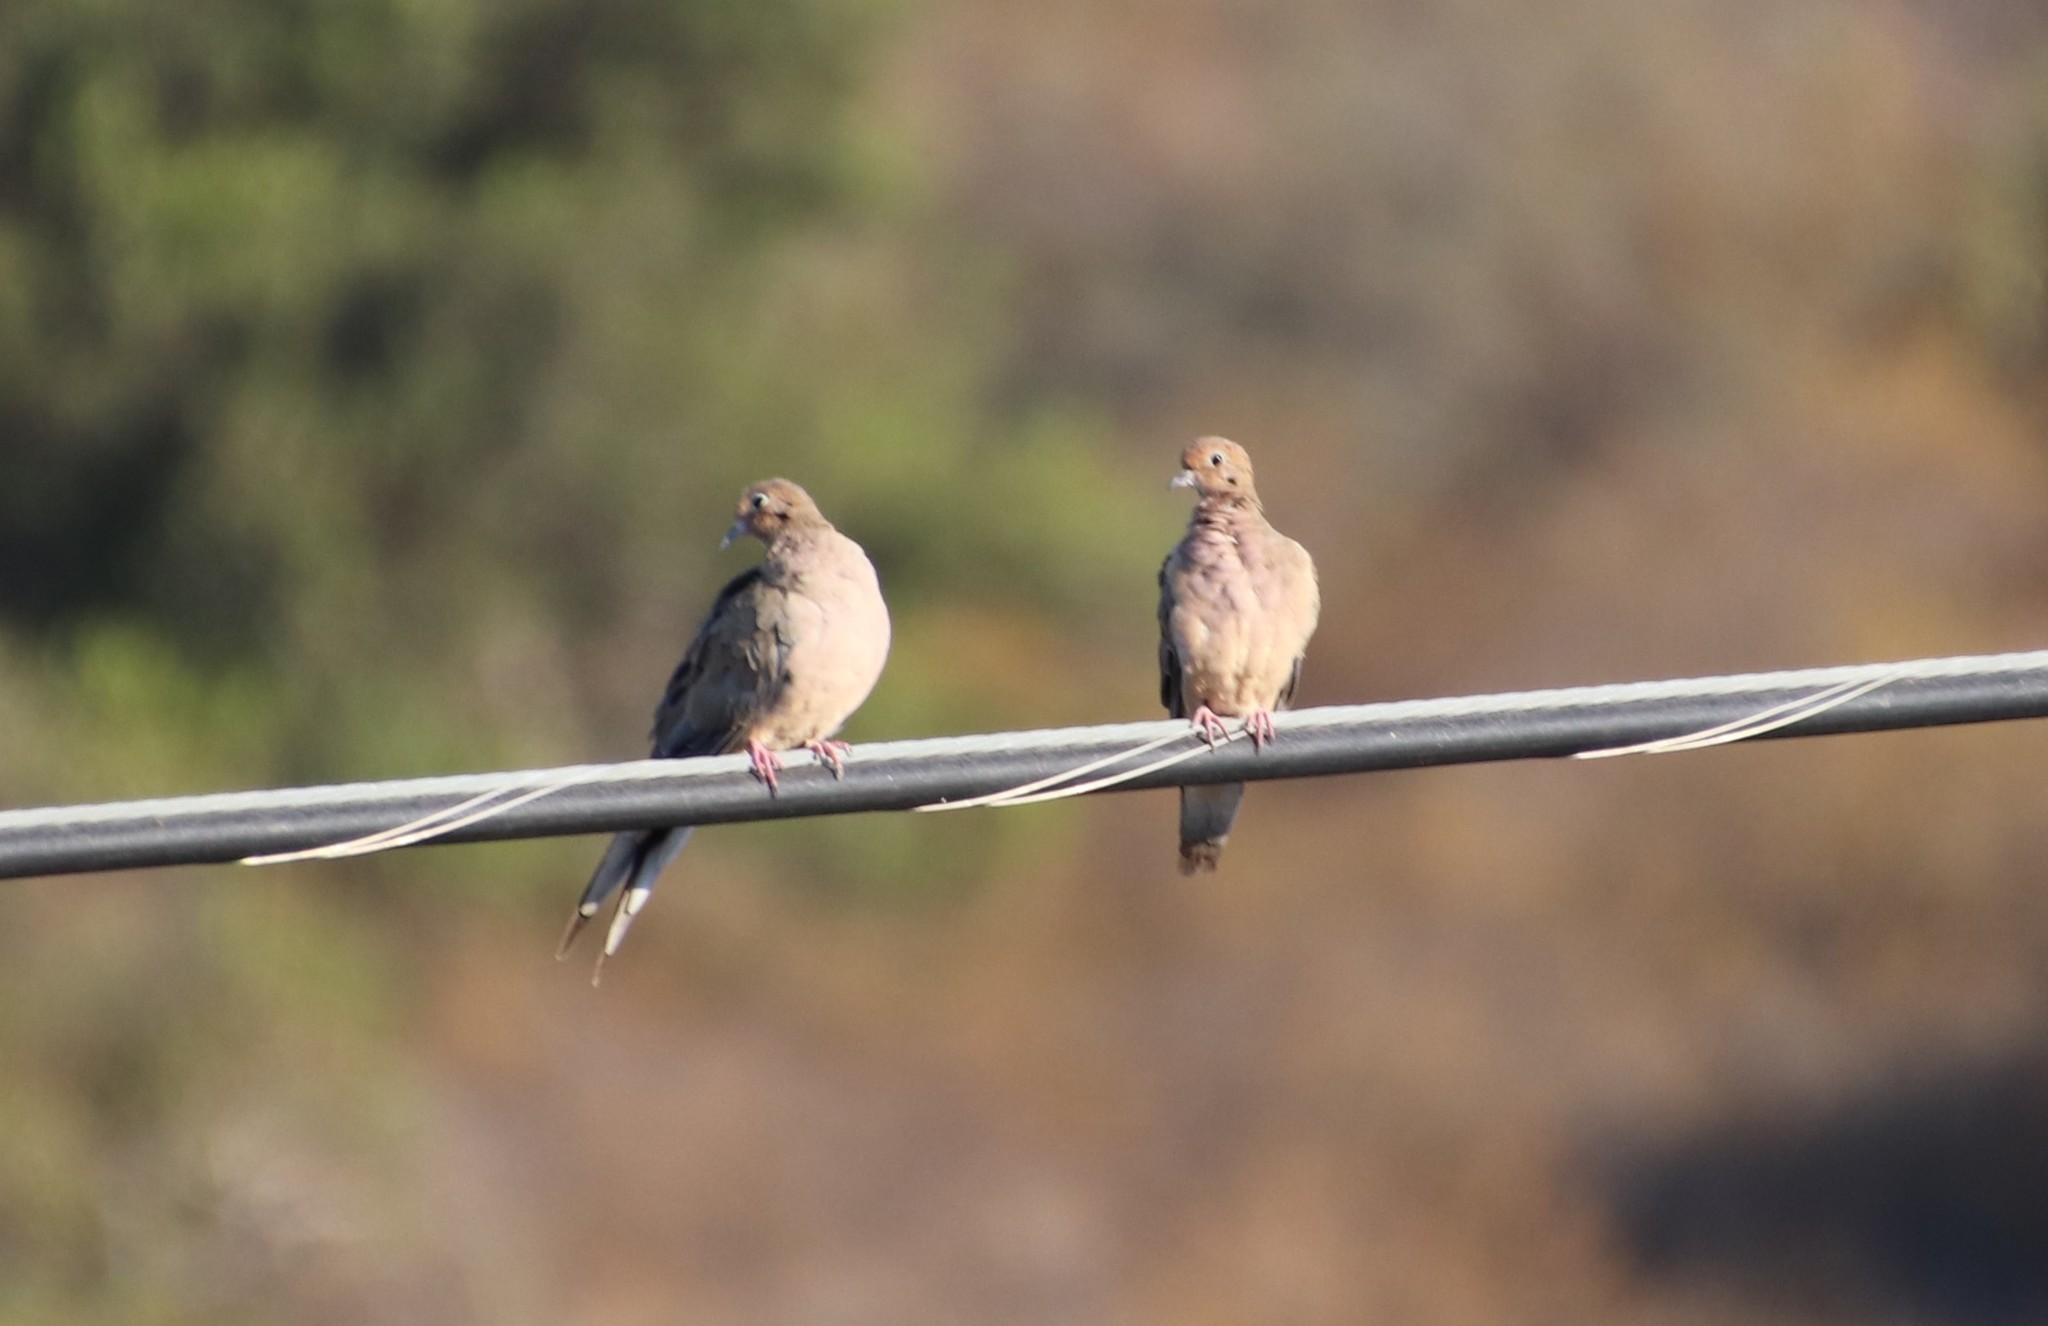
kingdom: Animalia
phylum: Chordata
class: Aves
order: Columbiformes
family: Columbidae
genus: Zenaida
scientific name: Zenaida macroura
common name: Mourning dove
